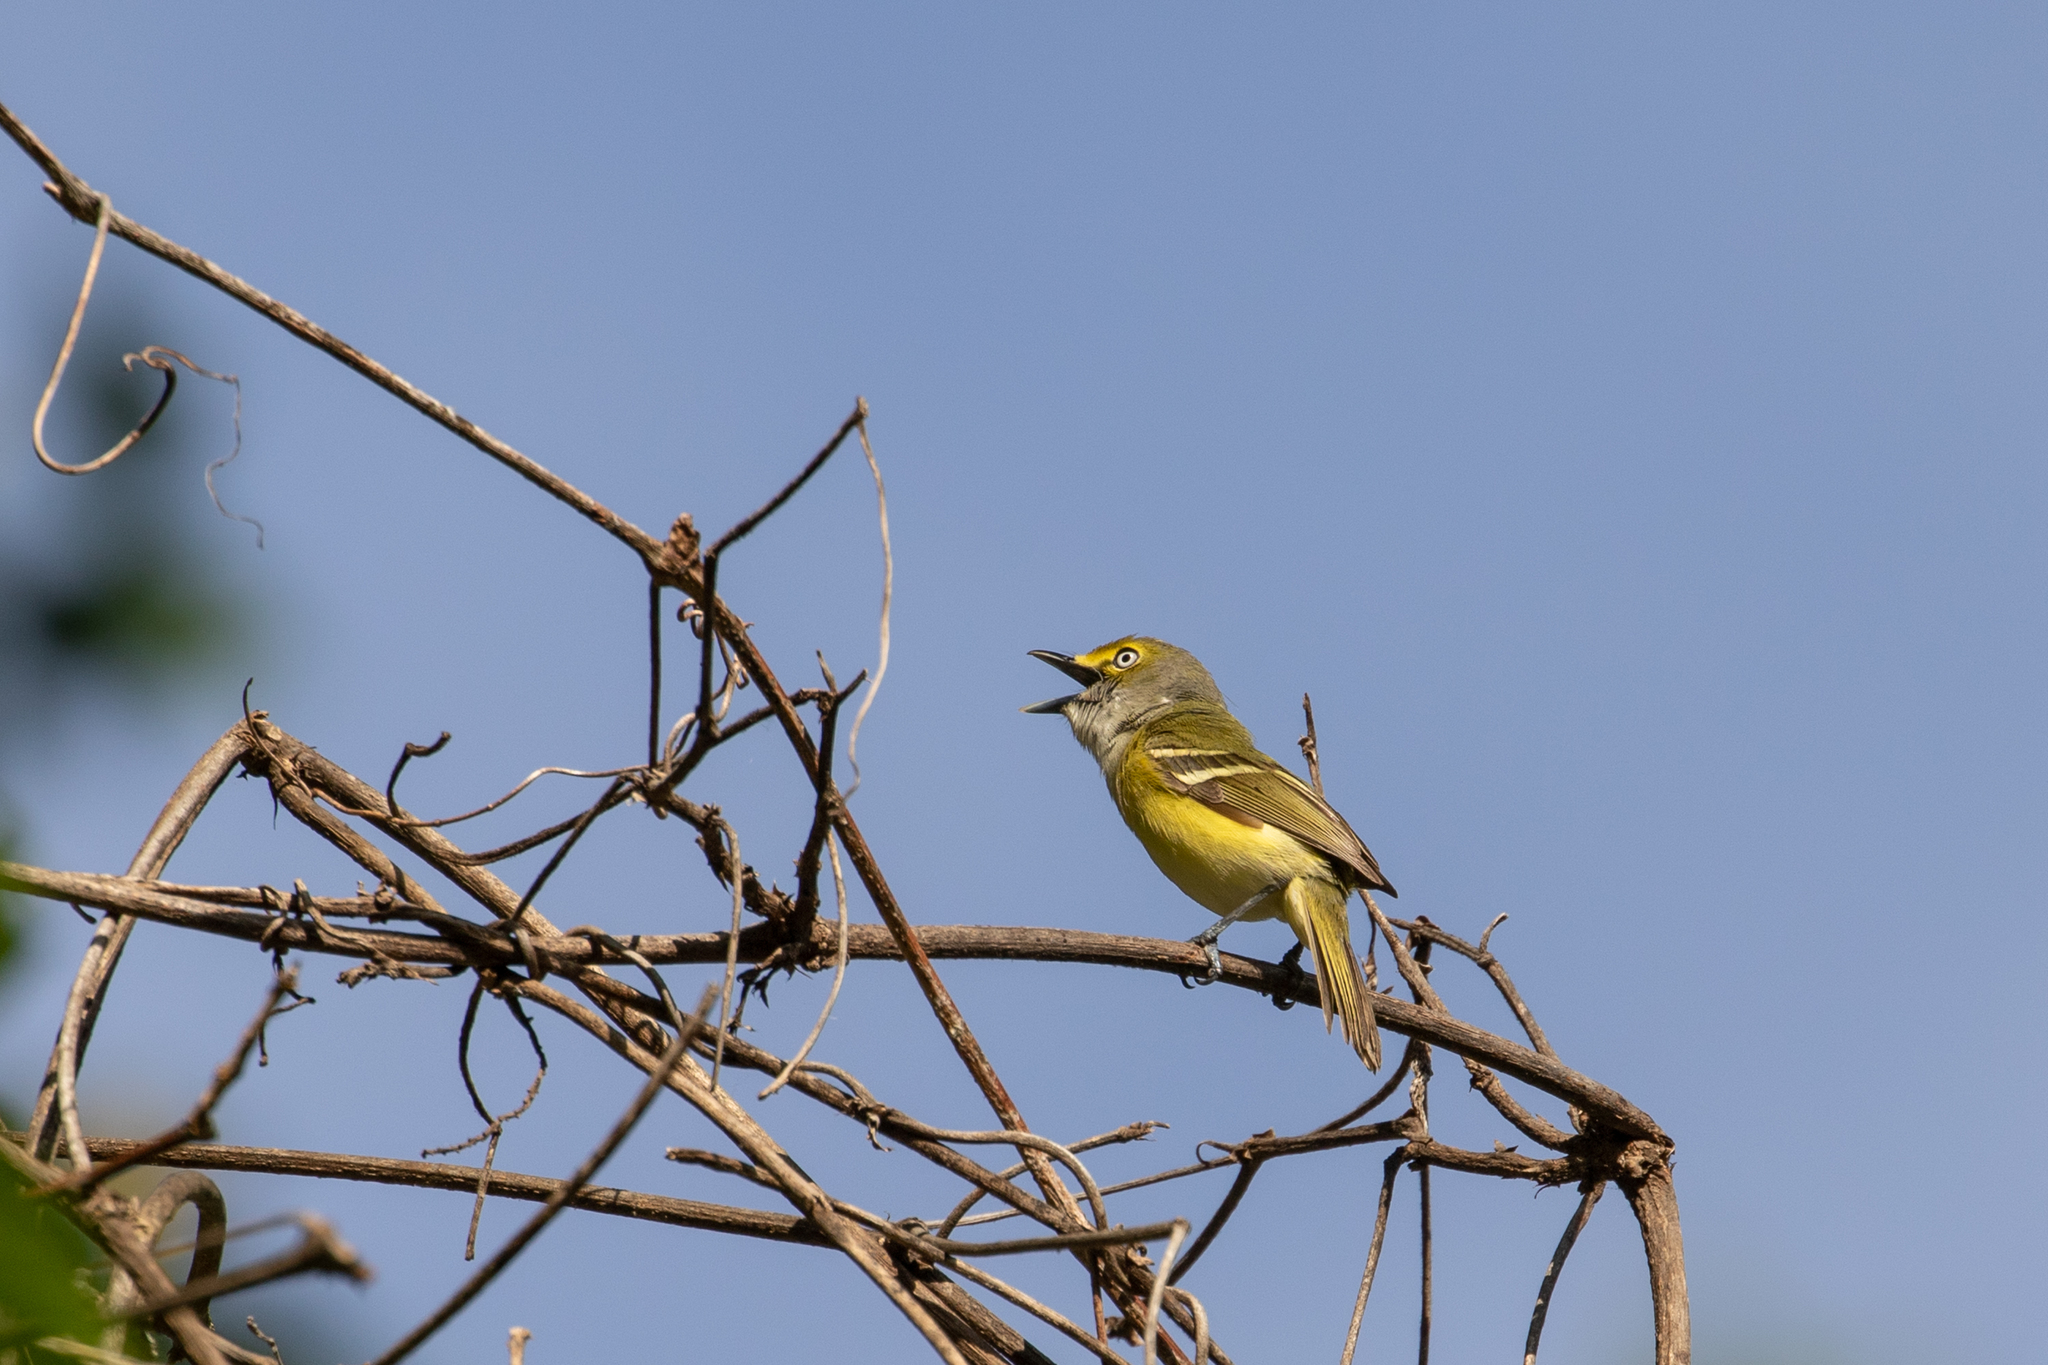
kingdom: Animalia
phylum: Chordata
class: Aves
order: Passeriformes
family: Vireonidae
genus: Vireo
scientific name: Vireo griseus
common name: White-eyed vireo
